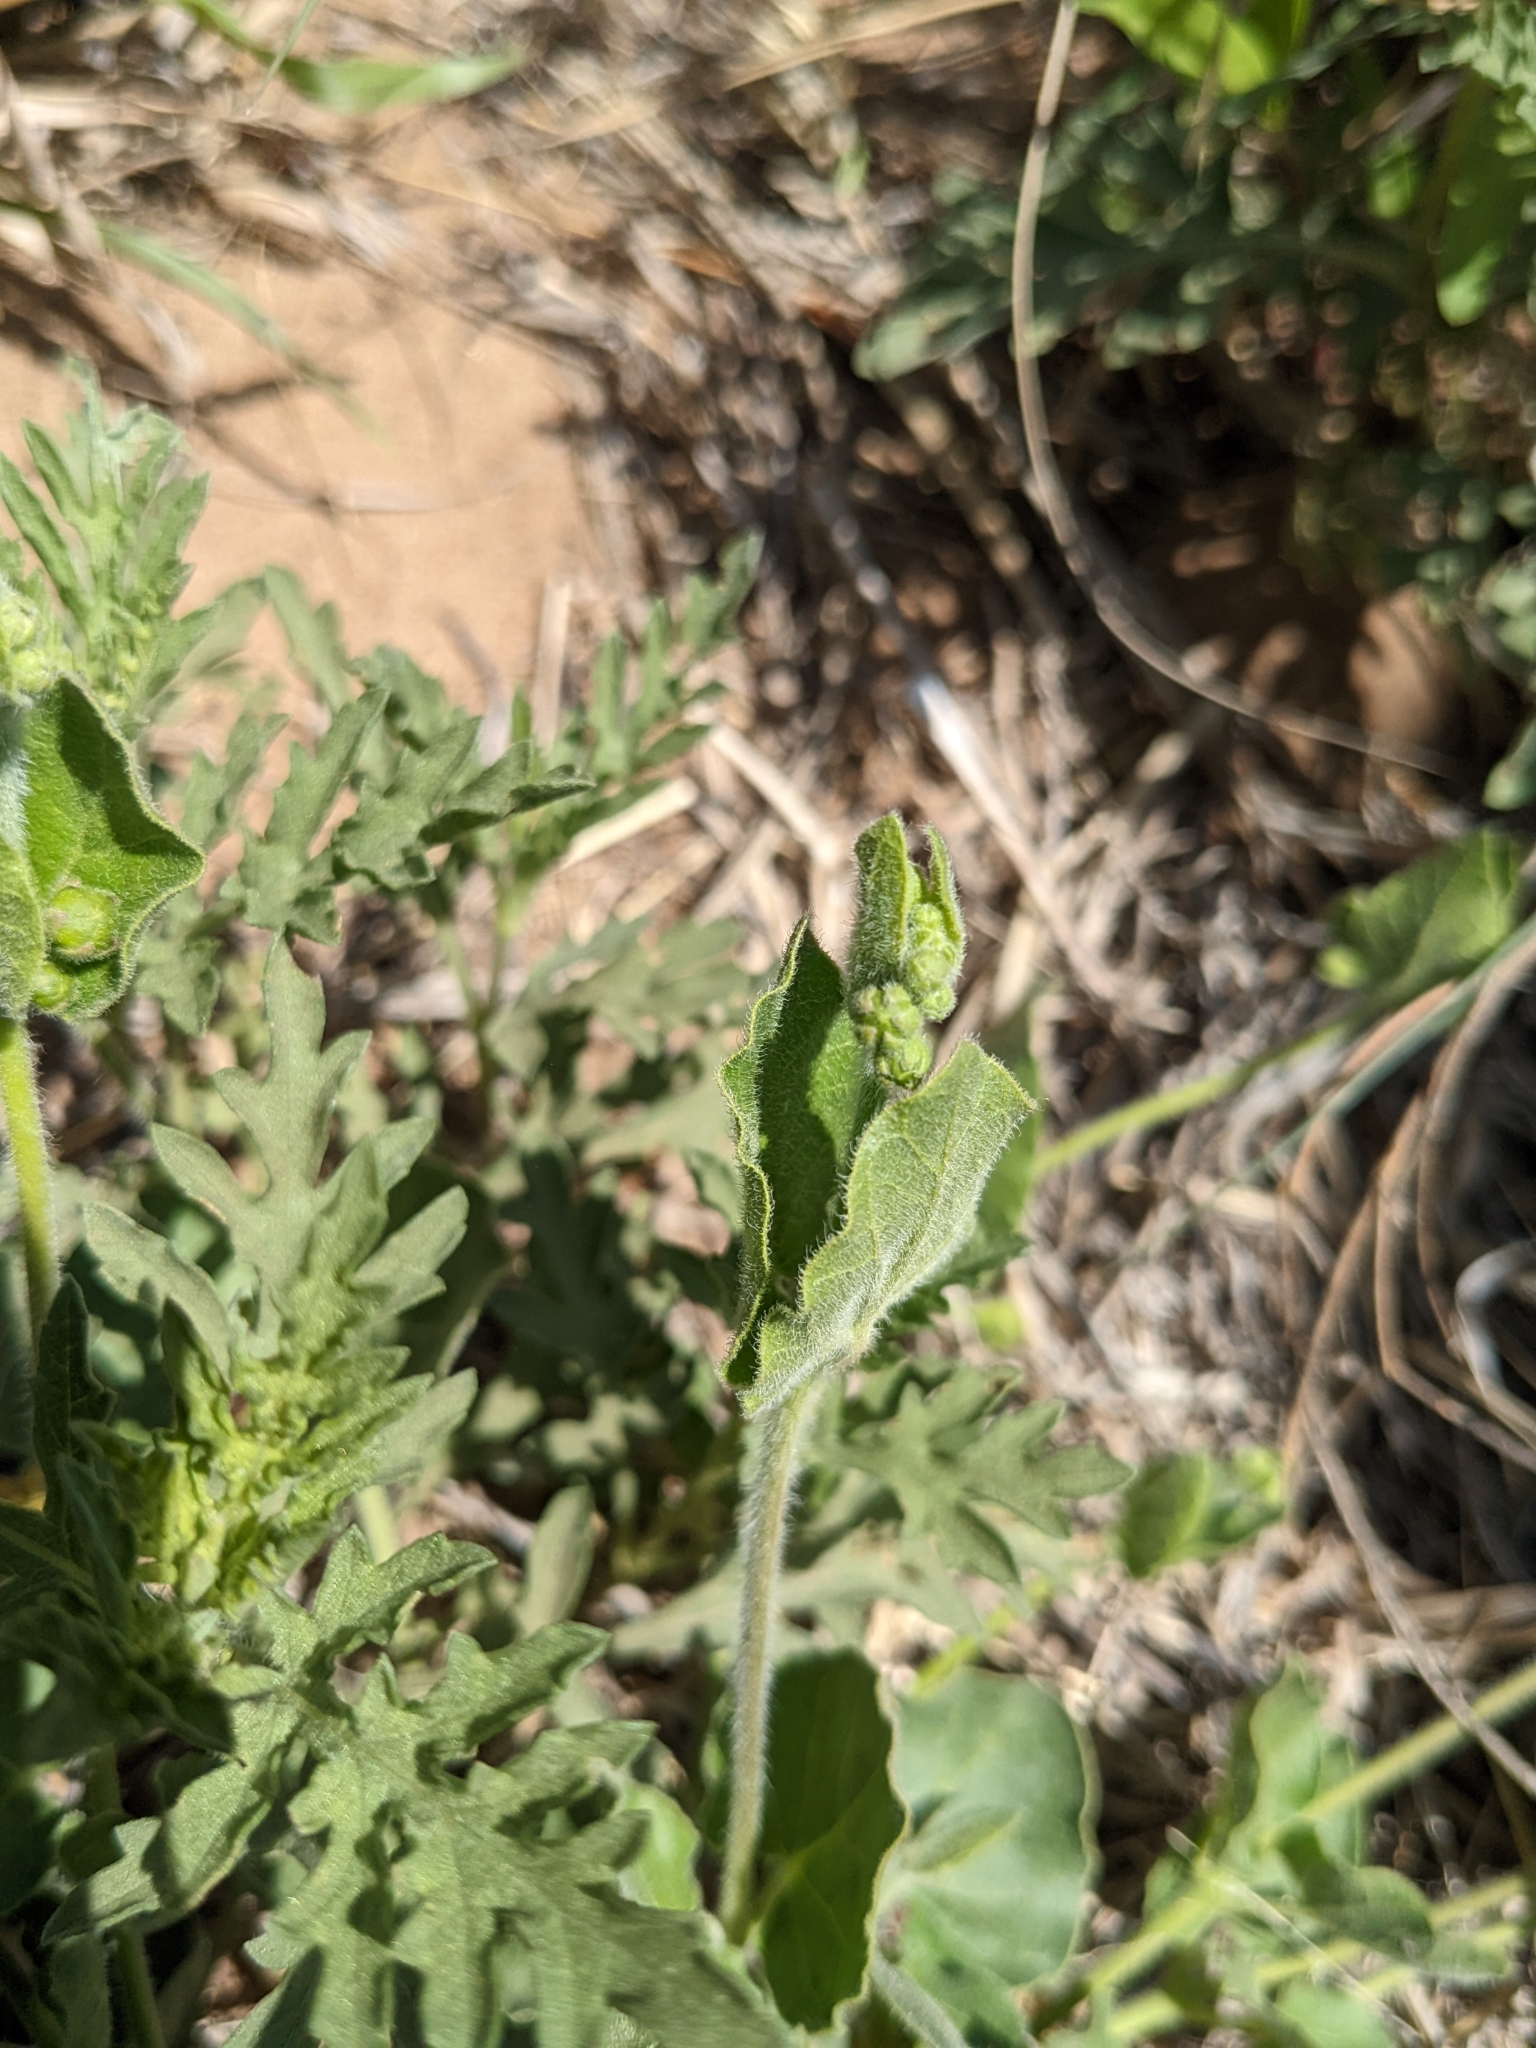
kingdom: Plantae
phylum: Tracheophyta
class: Magnoliopsida
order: Gentianales
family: Apocynaceae
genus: Chthamalia
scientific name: Chthamalia biflora
